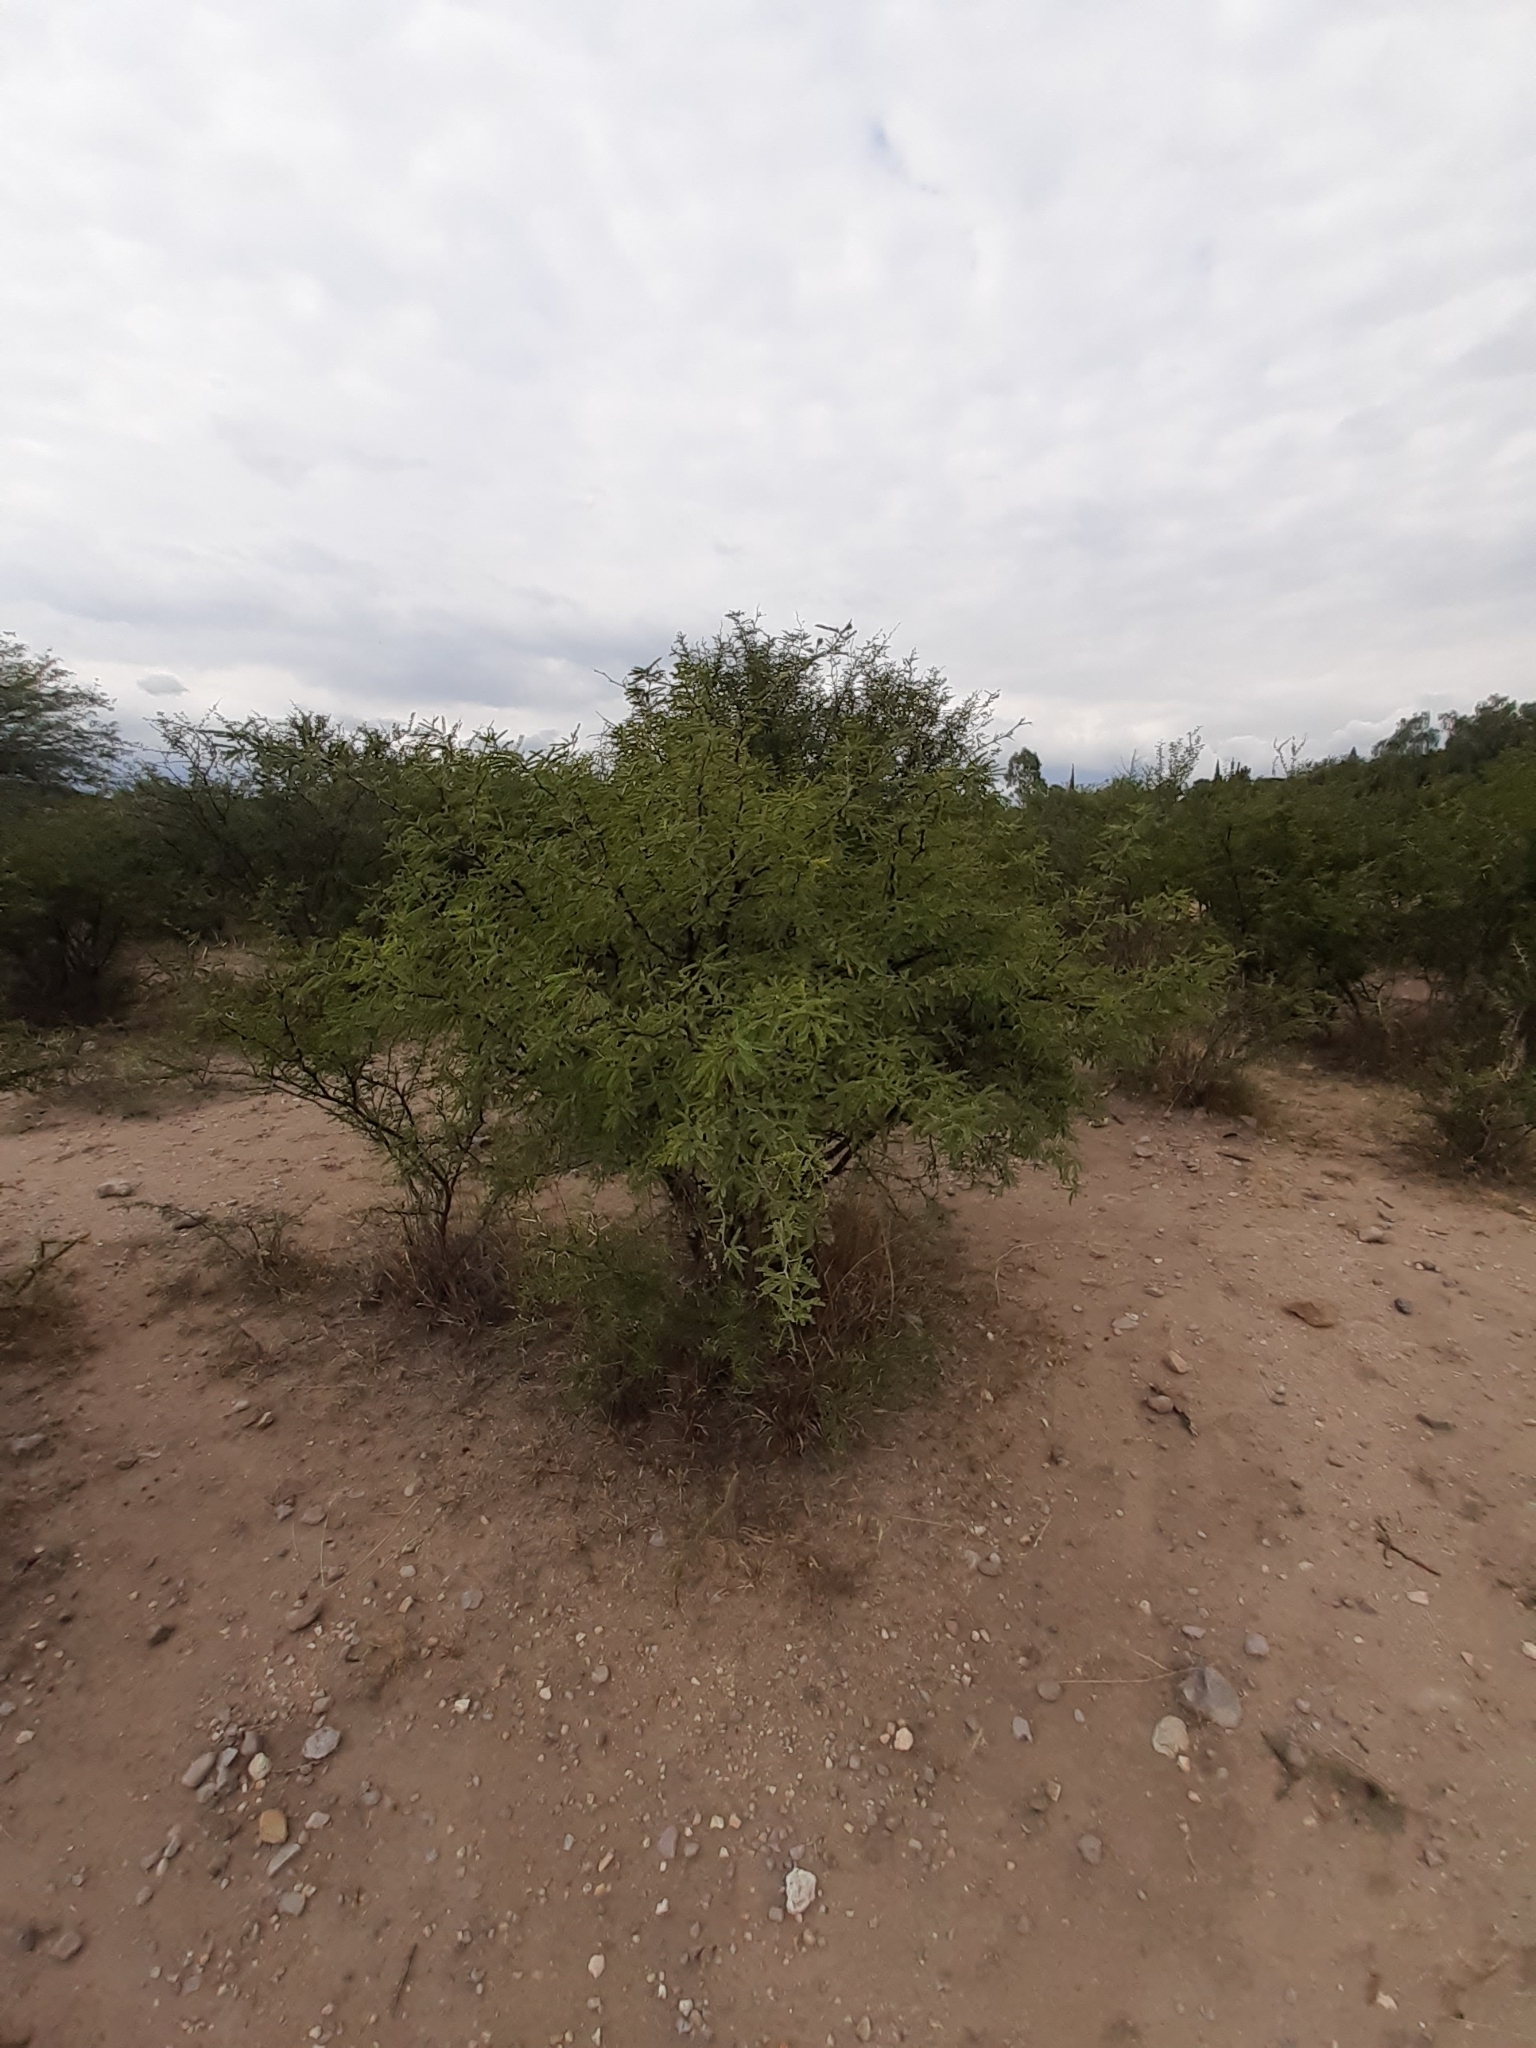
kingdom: Plantae
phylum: Tracheophyta
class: Magnoliopsida
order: Fabales
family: Fabaceae
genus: Prosopis
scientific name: Prosopis laevigata
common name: Smooth mesquite
